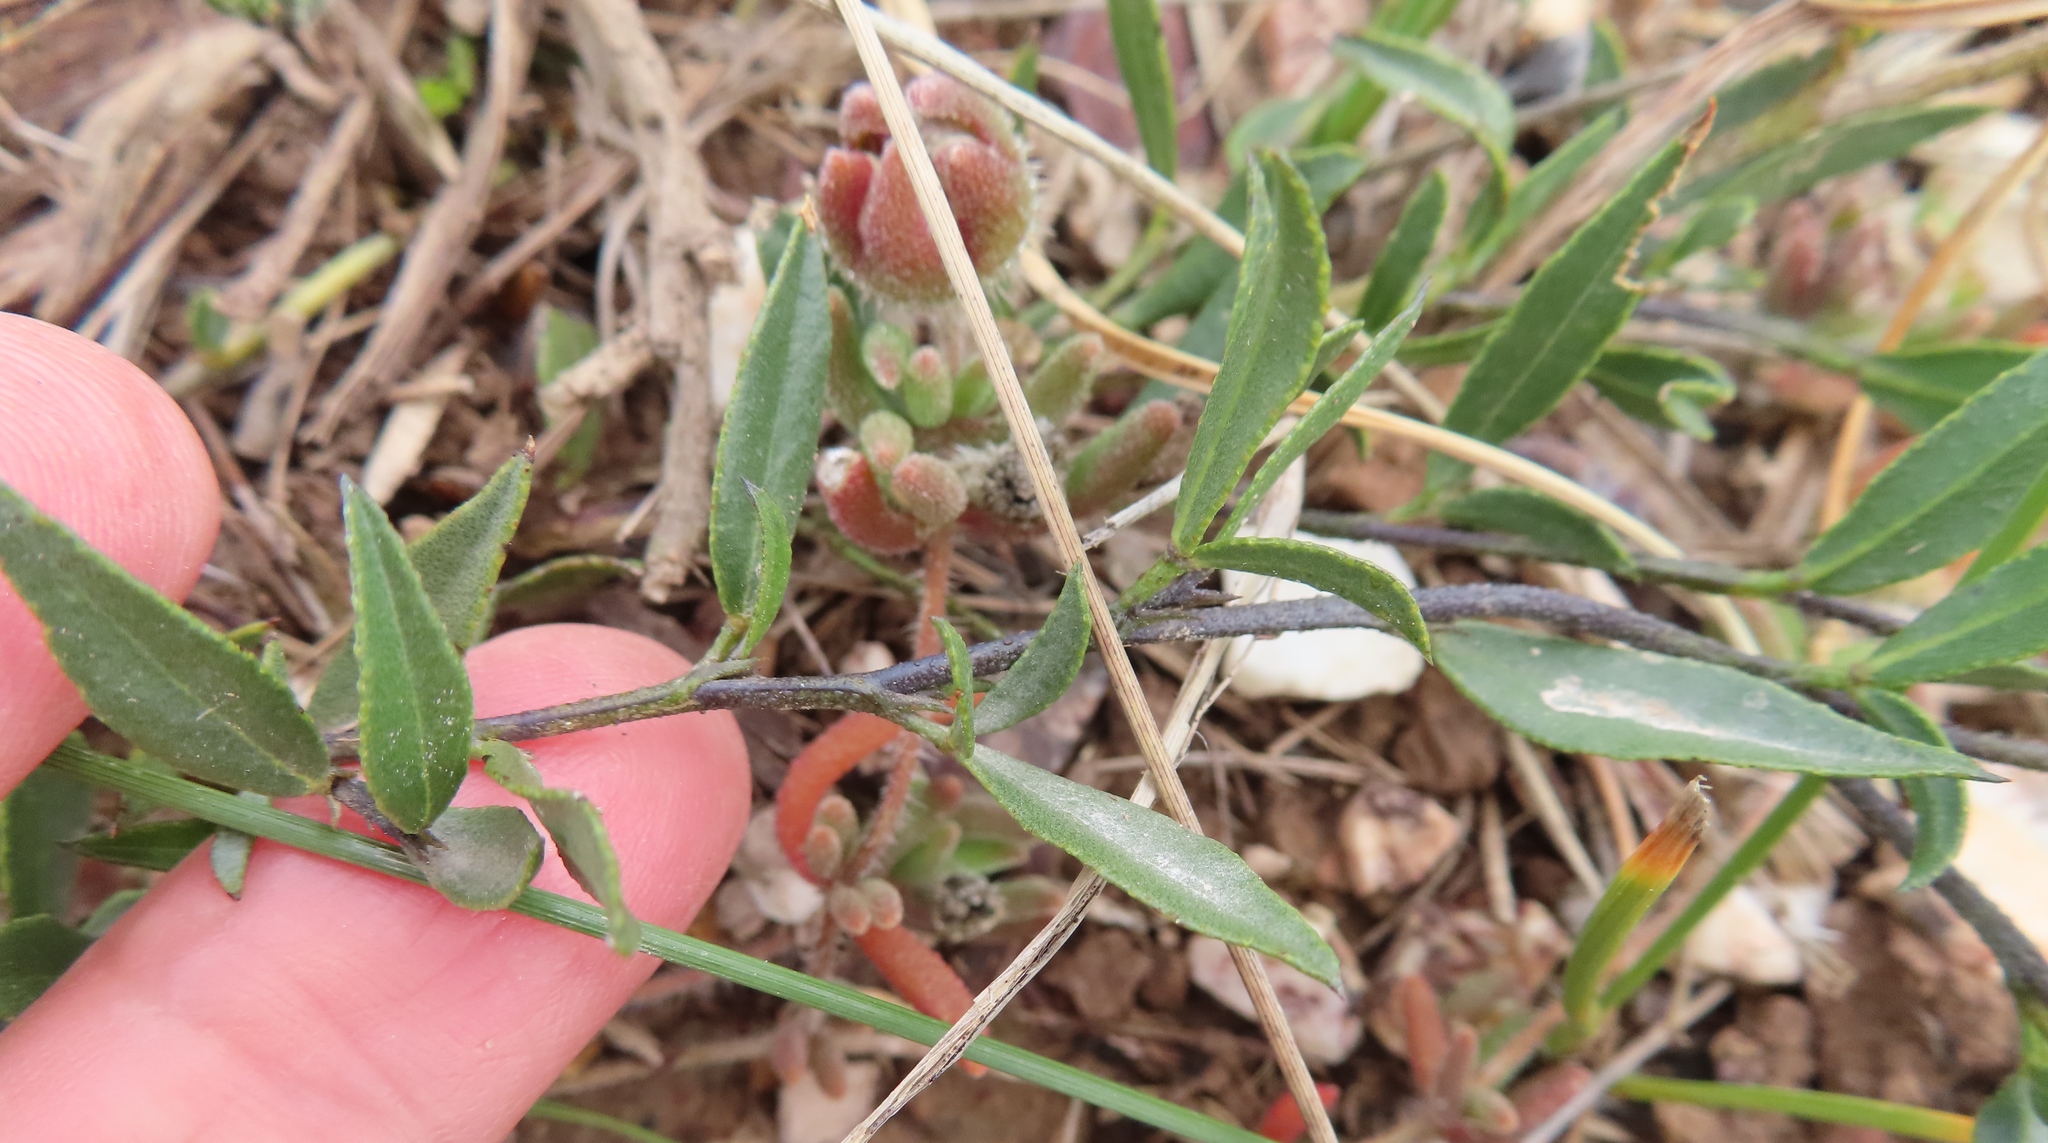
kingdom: Plantae
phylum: Tracheophyta
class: Magnoliopsida
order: Fabales
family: Fabaceae
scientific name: Fabaceae
